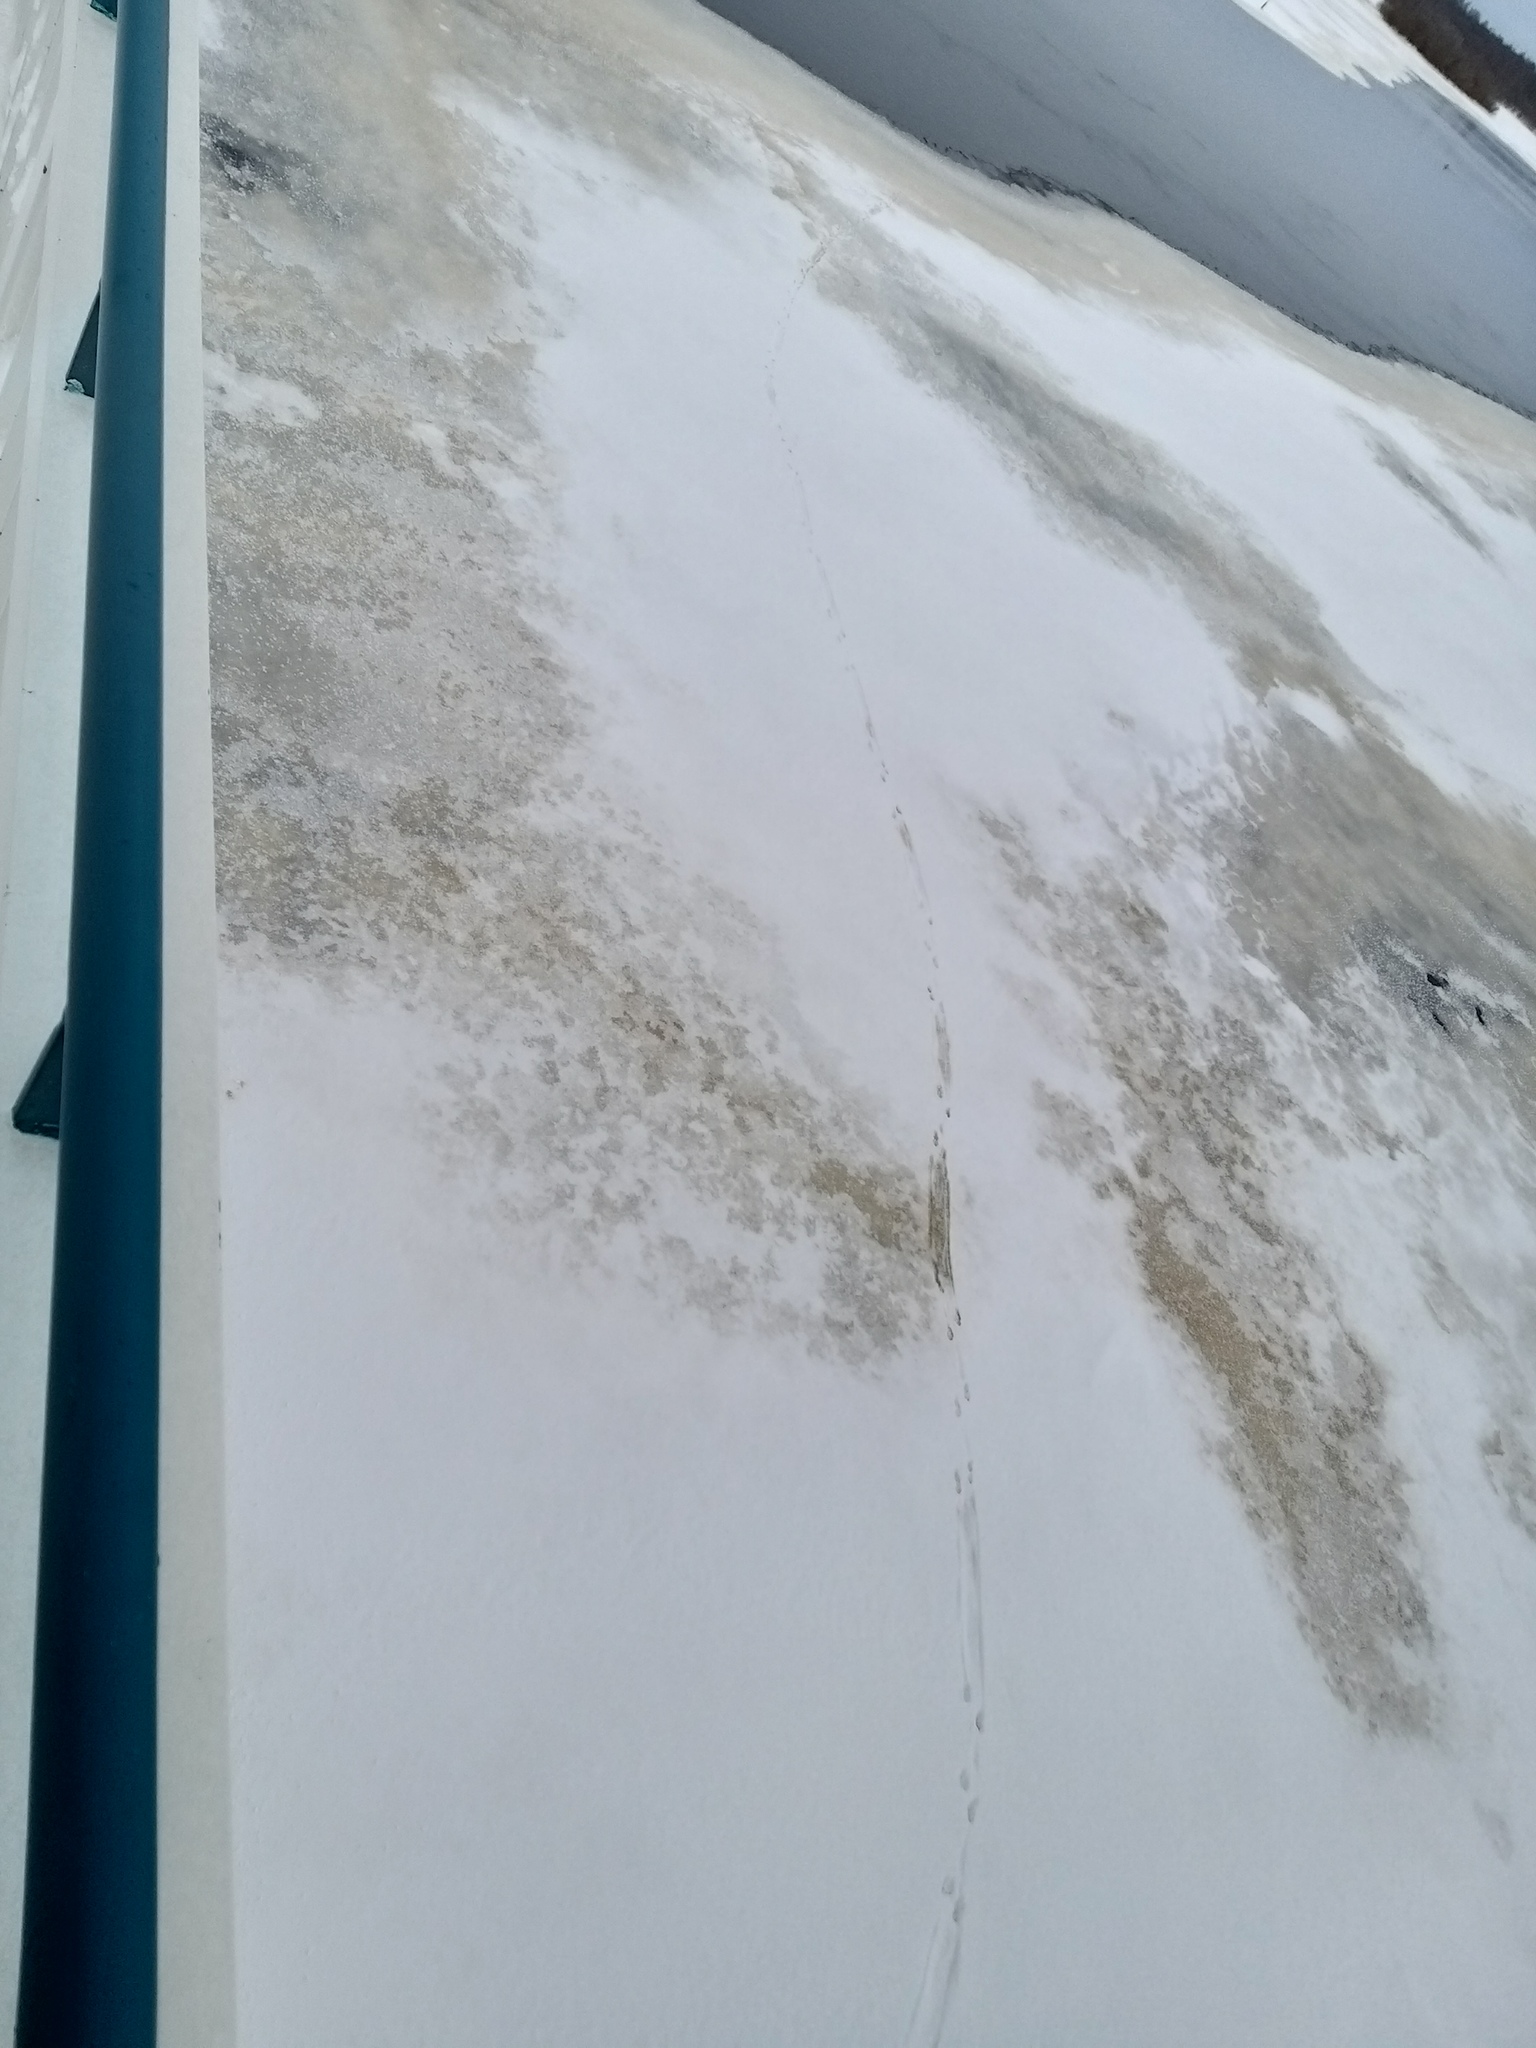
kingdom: Animalia
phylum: Chordata
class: Mammalia
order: Carnivora
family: Mustelidae
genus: Lutra
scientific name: Lutra lutra
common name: European otter
